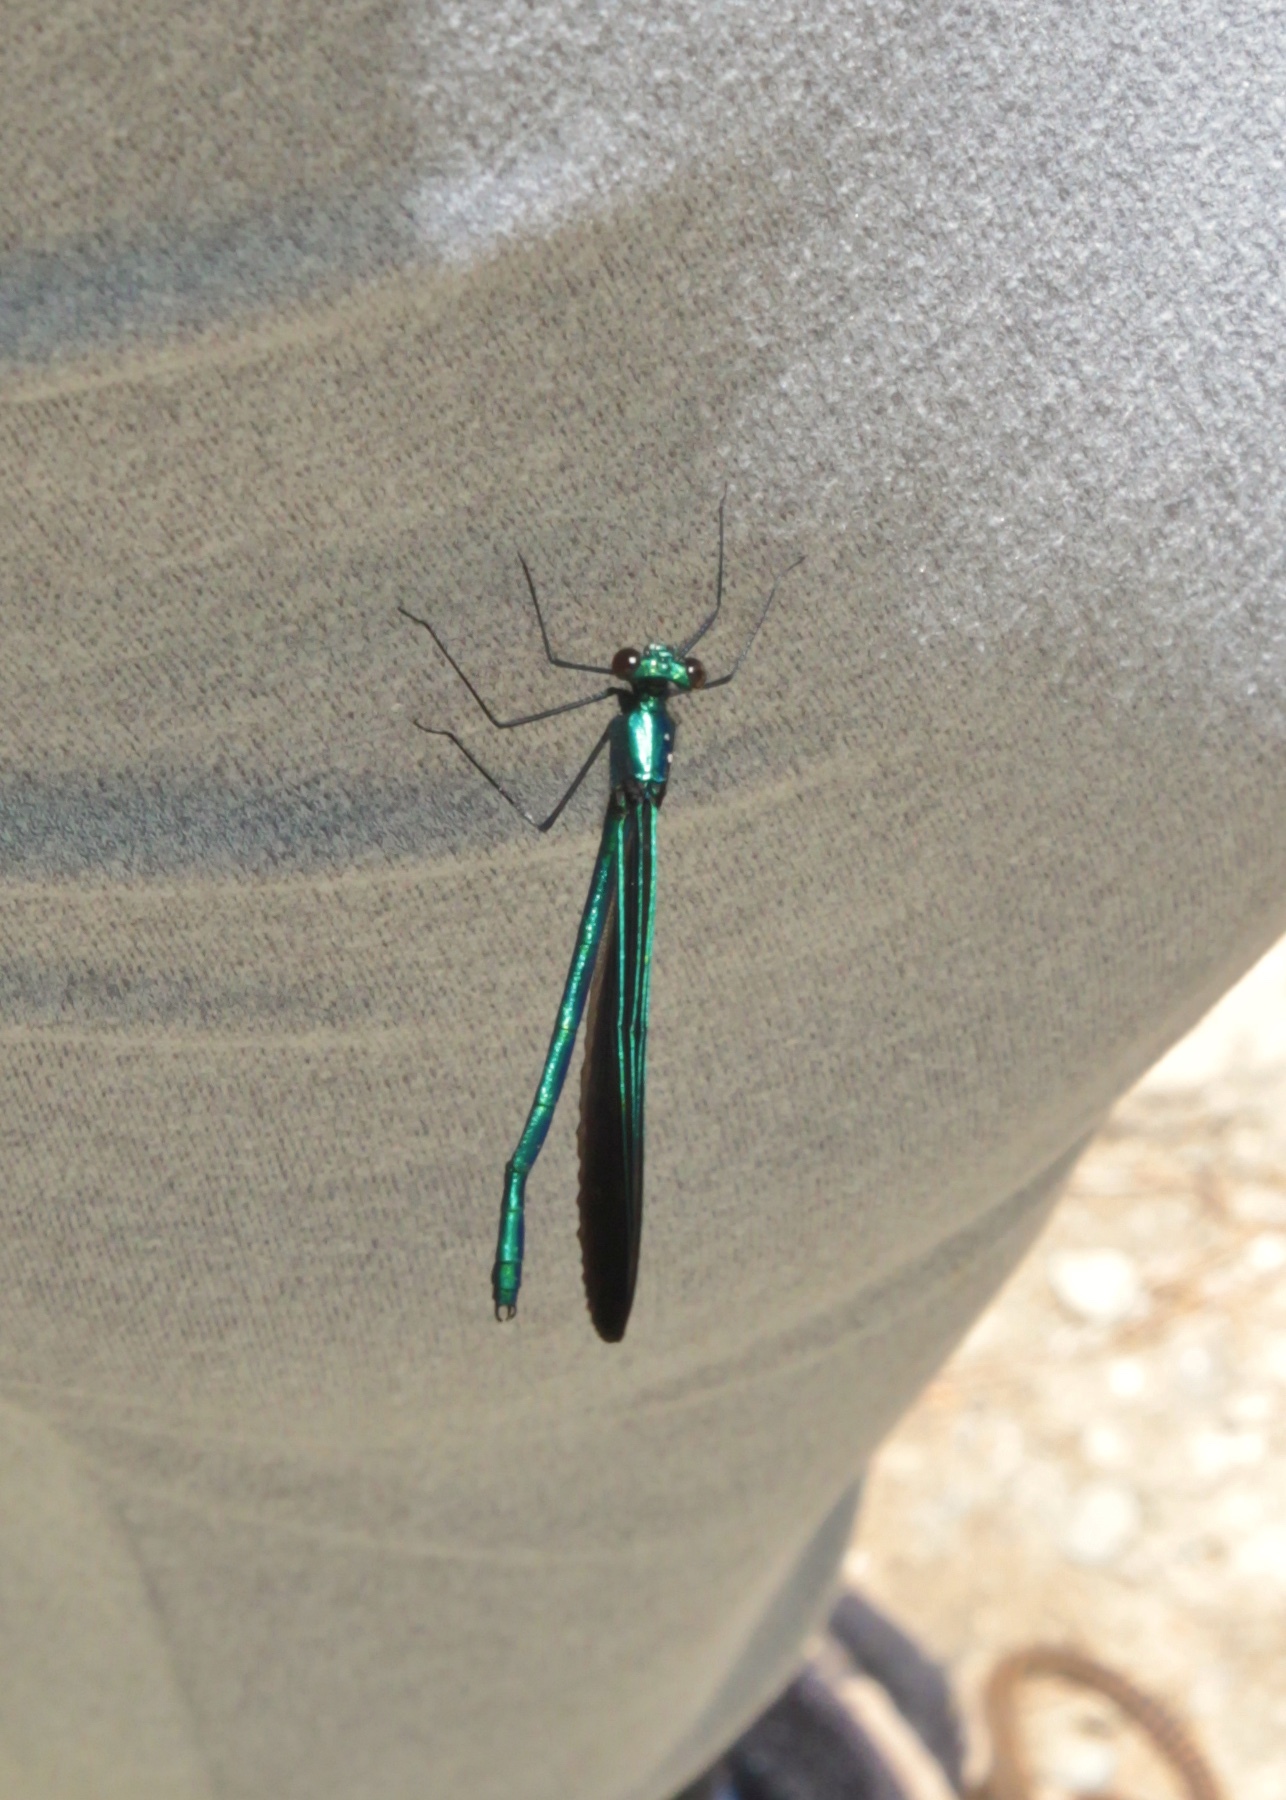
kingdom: Animalia
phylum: Arthropoda
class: Insecta
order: Odonata
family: Calopterygidae
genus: Calopteryx
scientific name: Calopteryx maculata
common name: Ebony jewelwing
